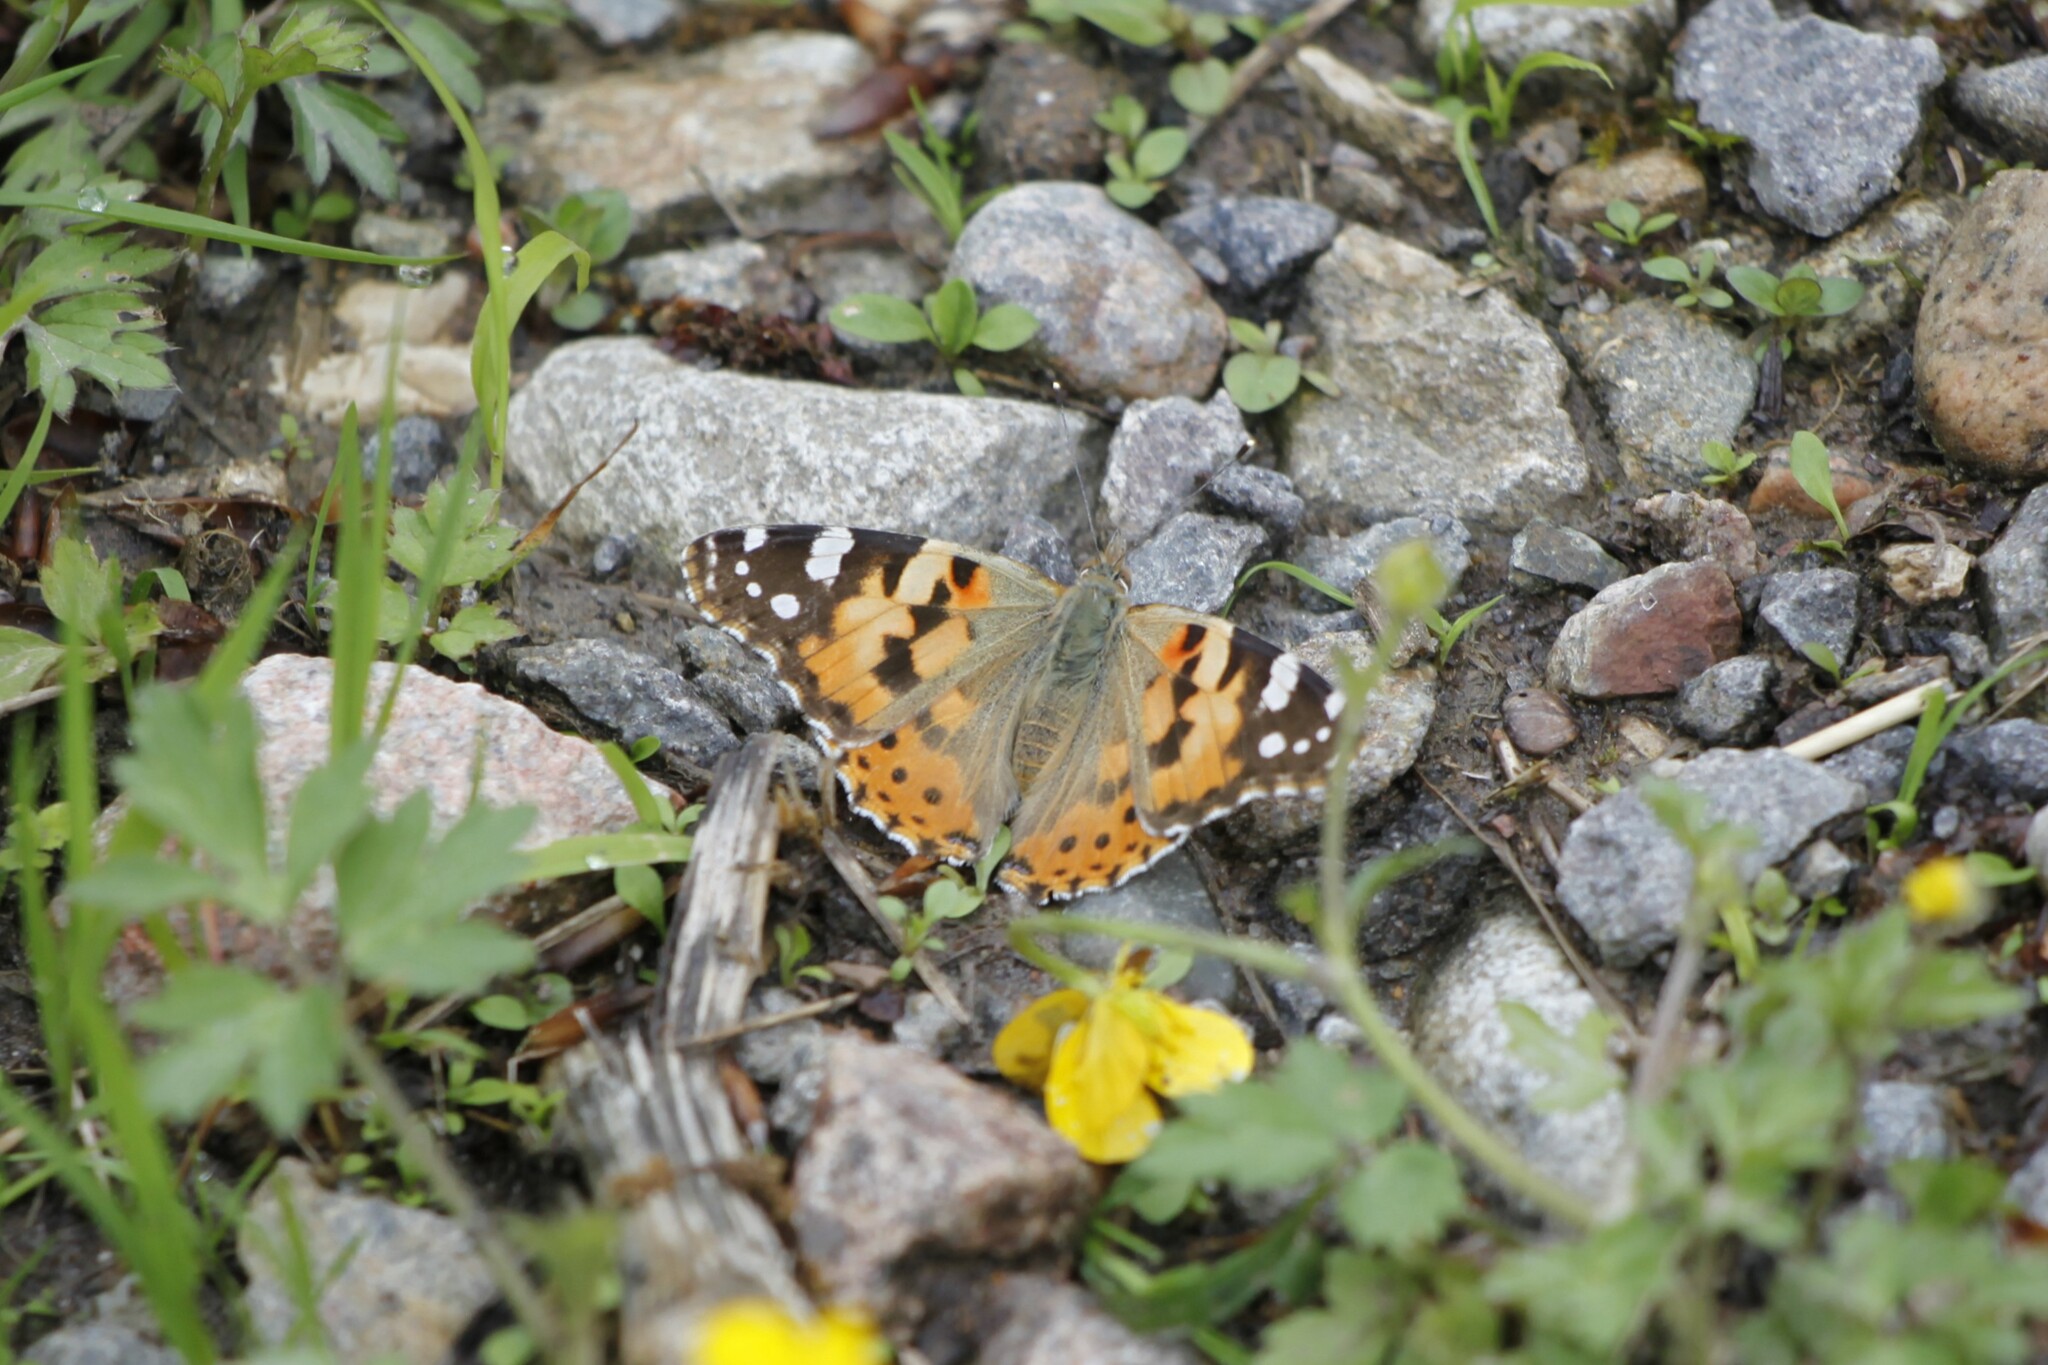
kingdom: Animalia
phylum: Arthropoda
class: Insecta
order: Lepidoptera
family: Nymphalidae
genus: Vanessa
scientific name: Vanessa cardui
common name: Painted lady
